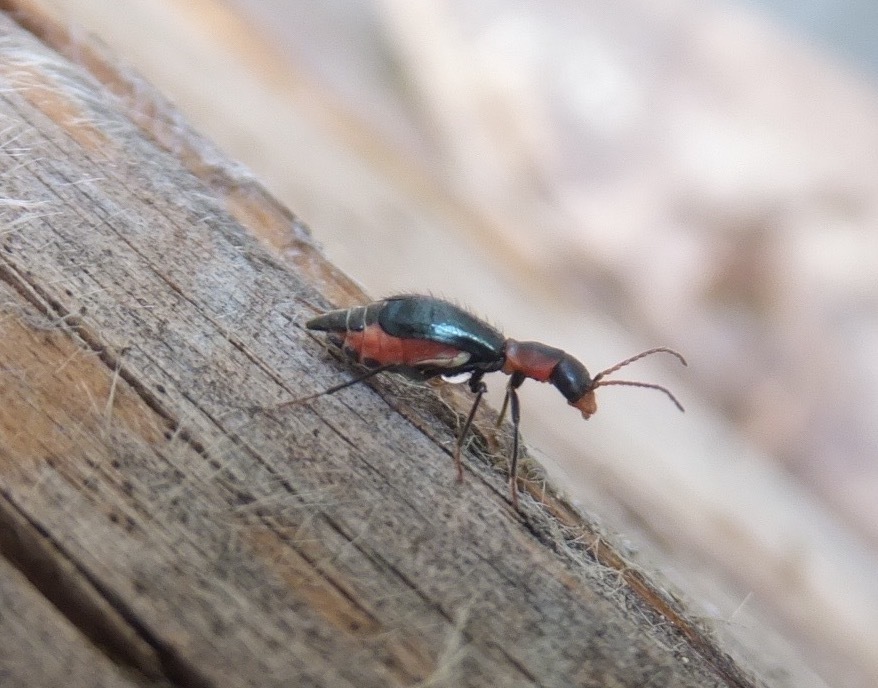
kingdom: Animalia
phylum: Arthropoda
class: Insecta
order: Coleoptera
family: Melyridae
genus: Cyrtosus
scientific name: Cyrtosus cyanipennis
